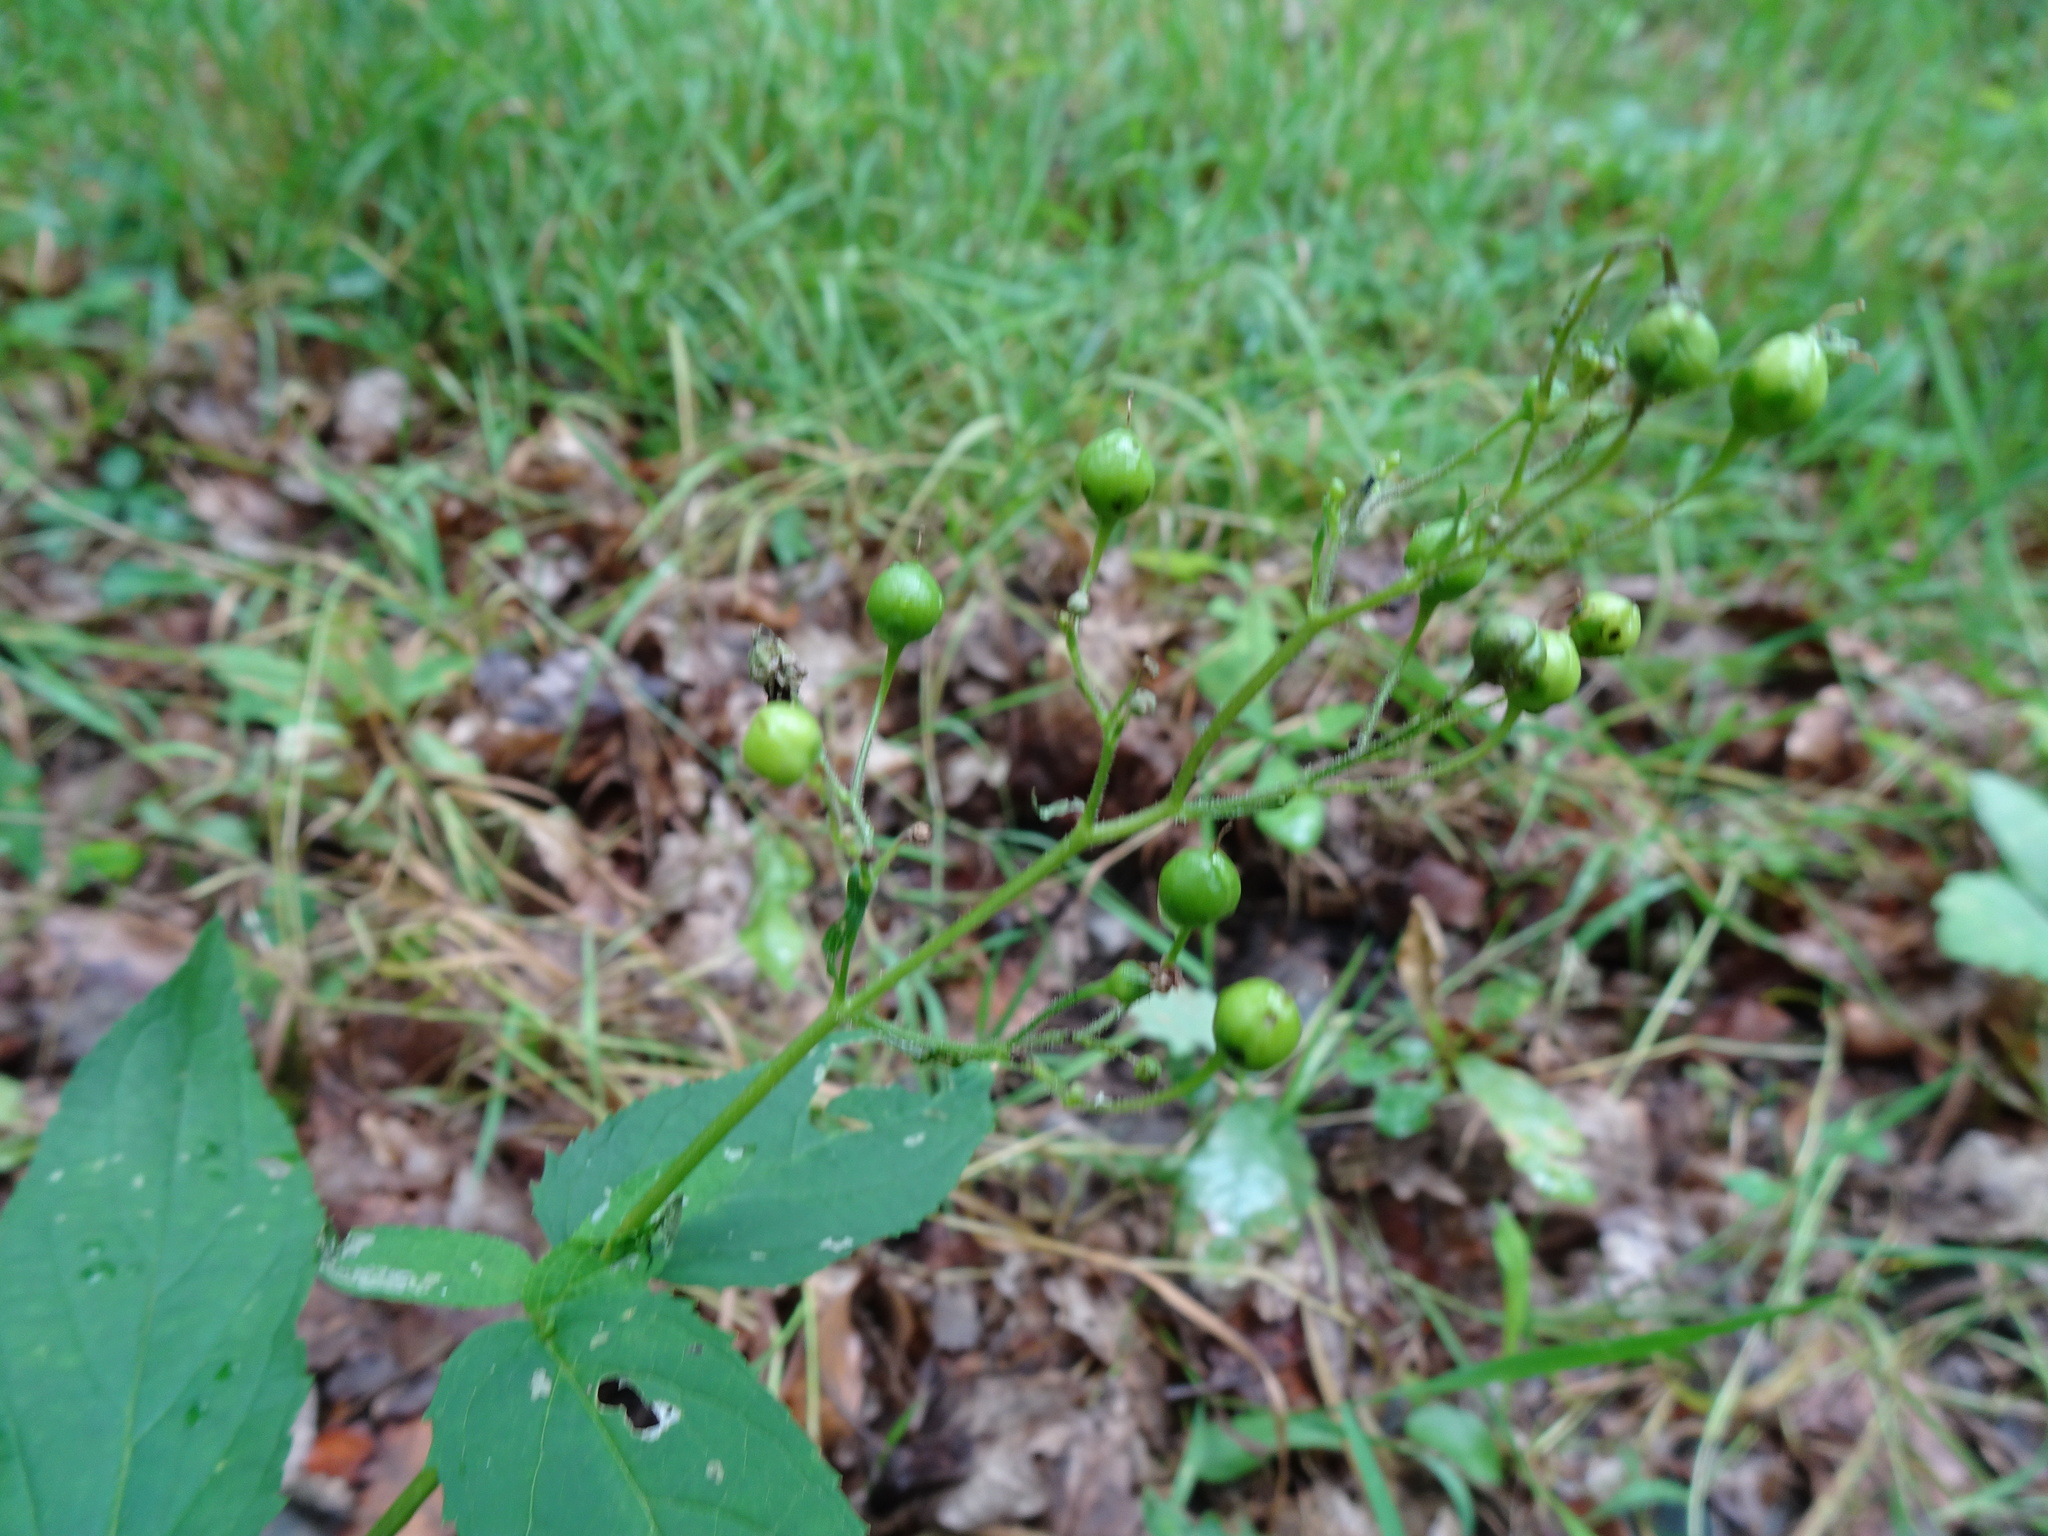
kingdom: Plantae
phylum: Tracheophyta
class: Magnoliopsida
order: Lamiales
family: Scrophulariaceae
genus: Scrophularia
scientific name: Scrophularia nodosa
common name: Common figwort
